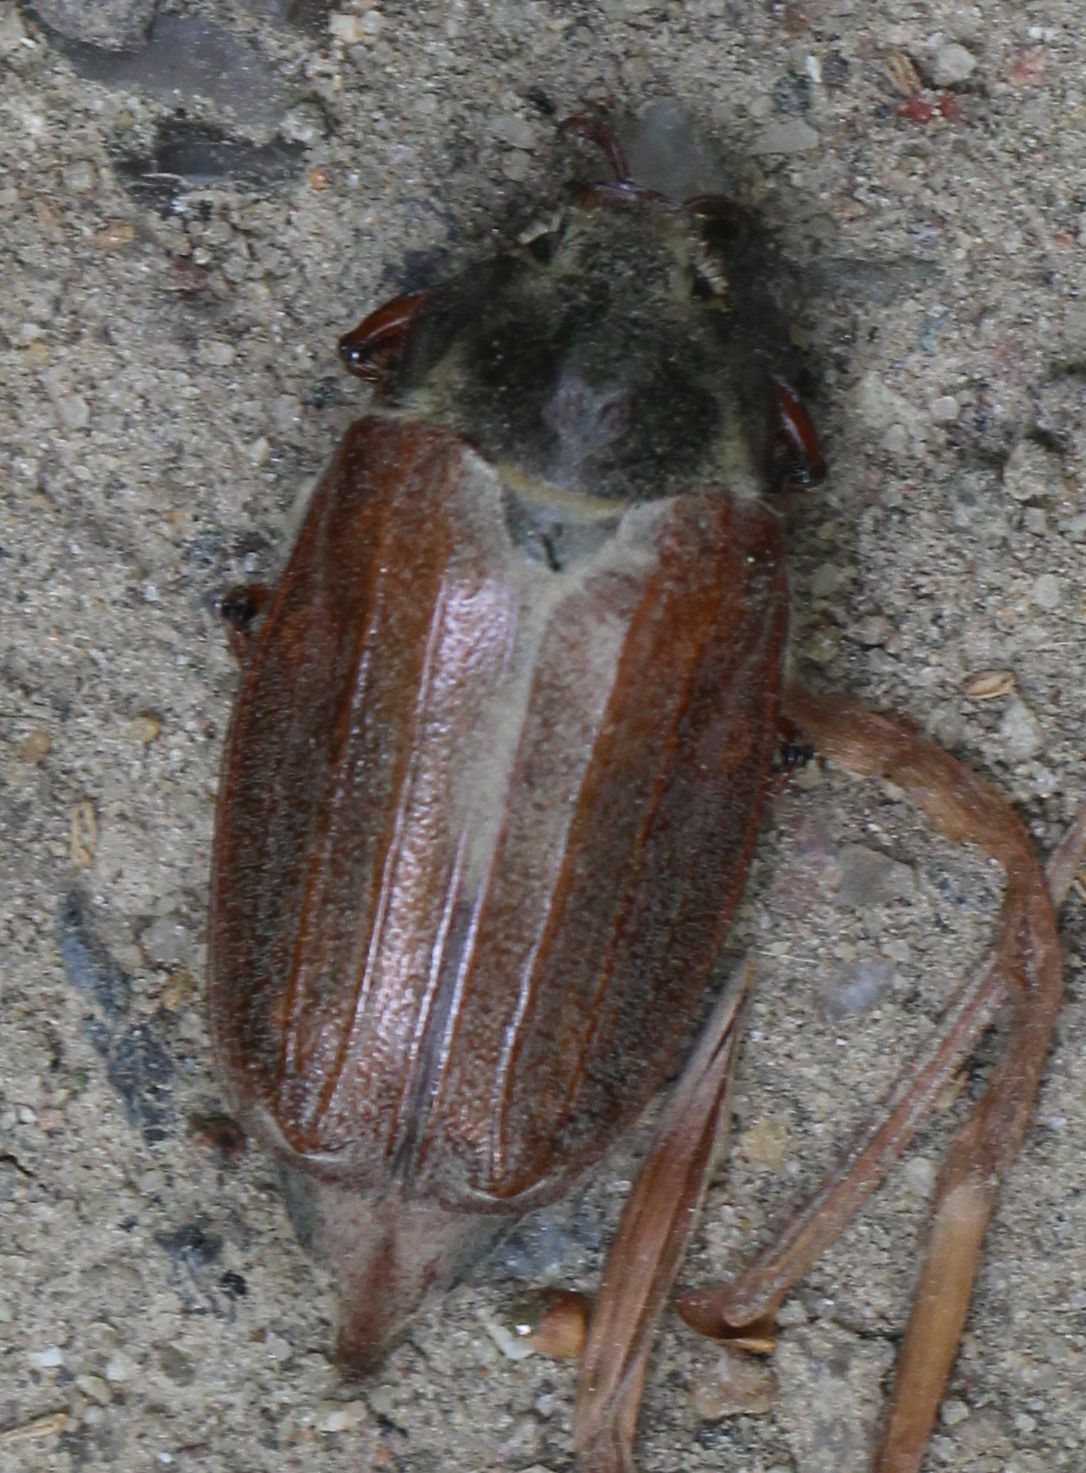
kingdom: Animalia
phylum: Arthropoda
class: Insecta
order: Coleoptera
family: Scarabaeidae
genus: Melolontha
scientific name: Melolontha melolontha
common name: Cockchafer maybeetle
